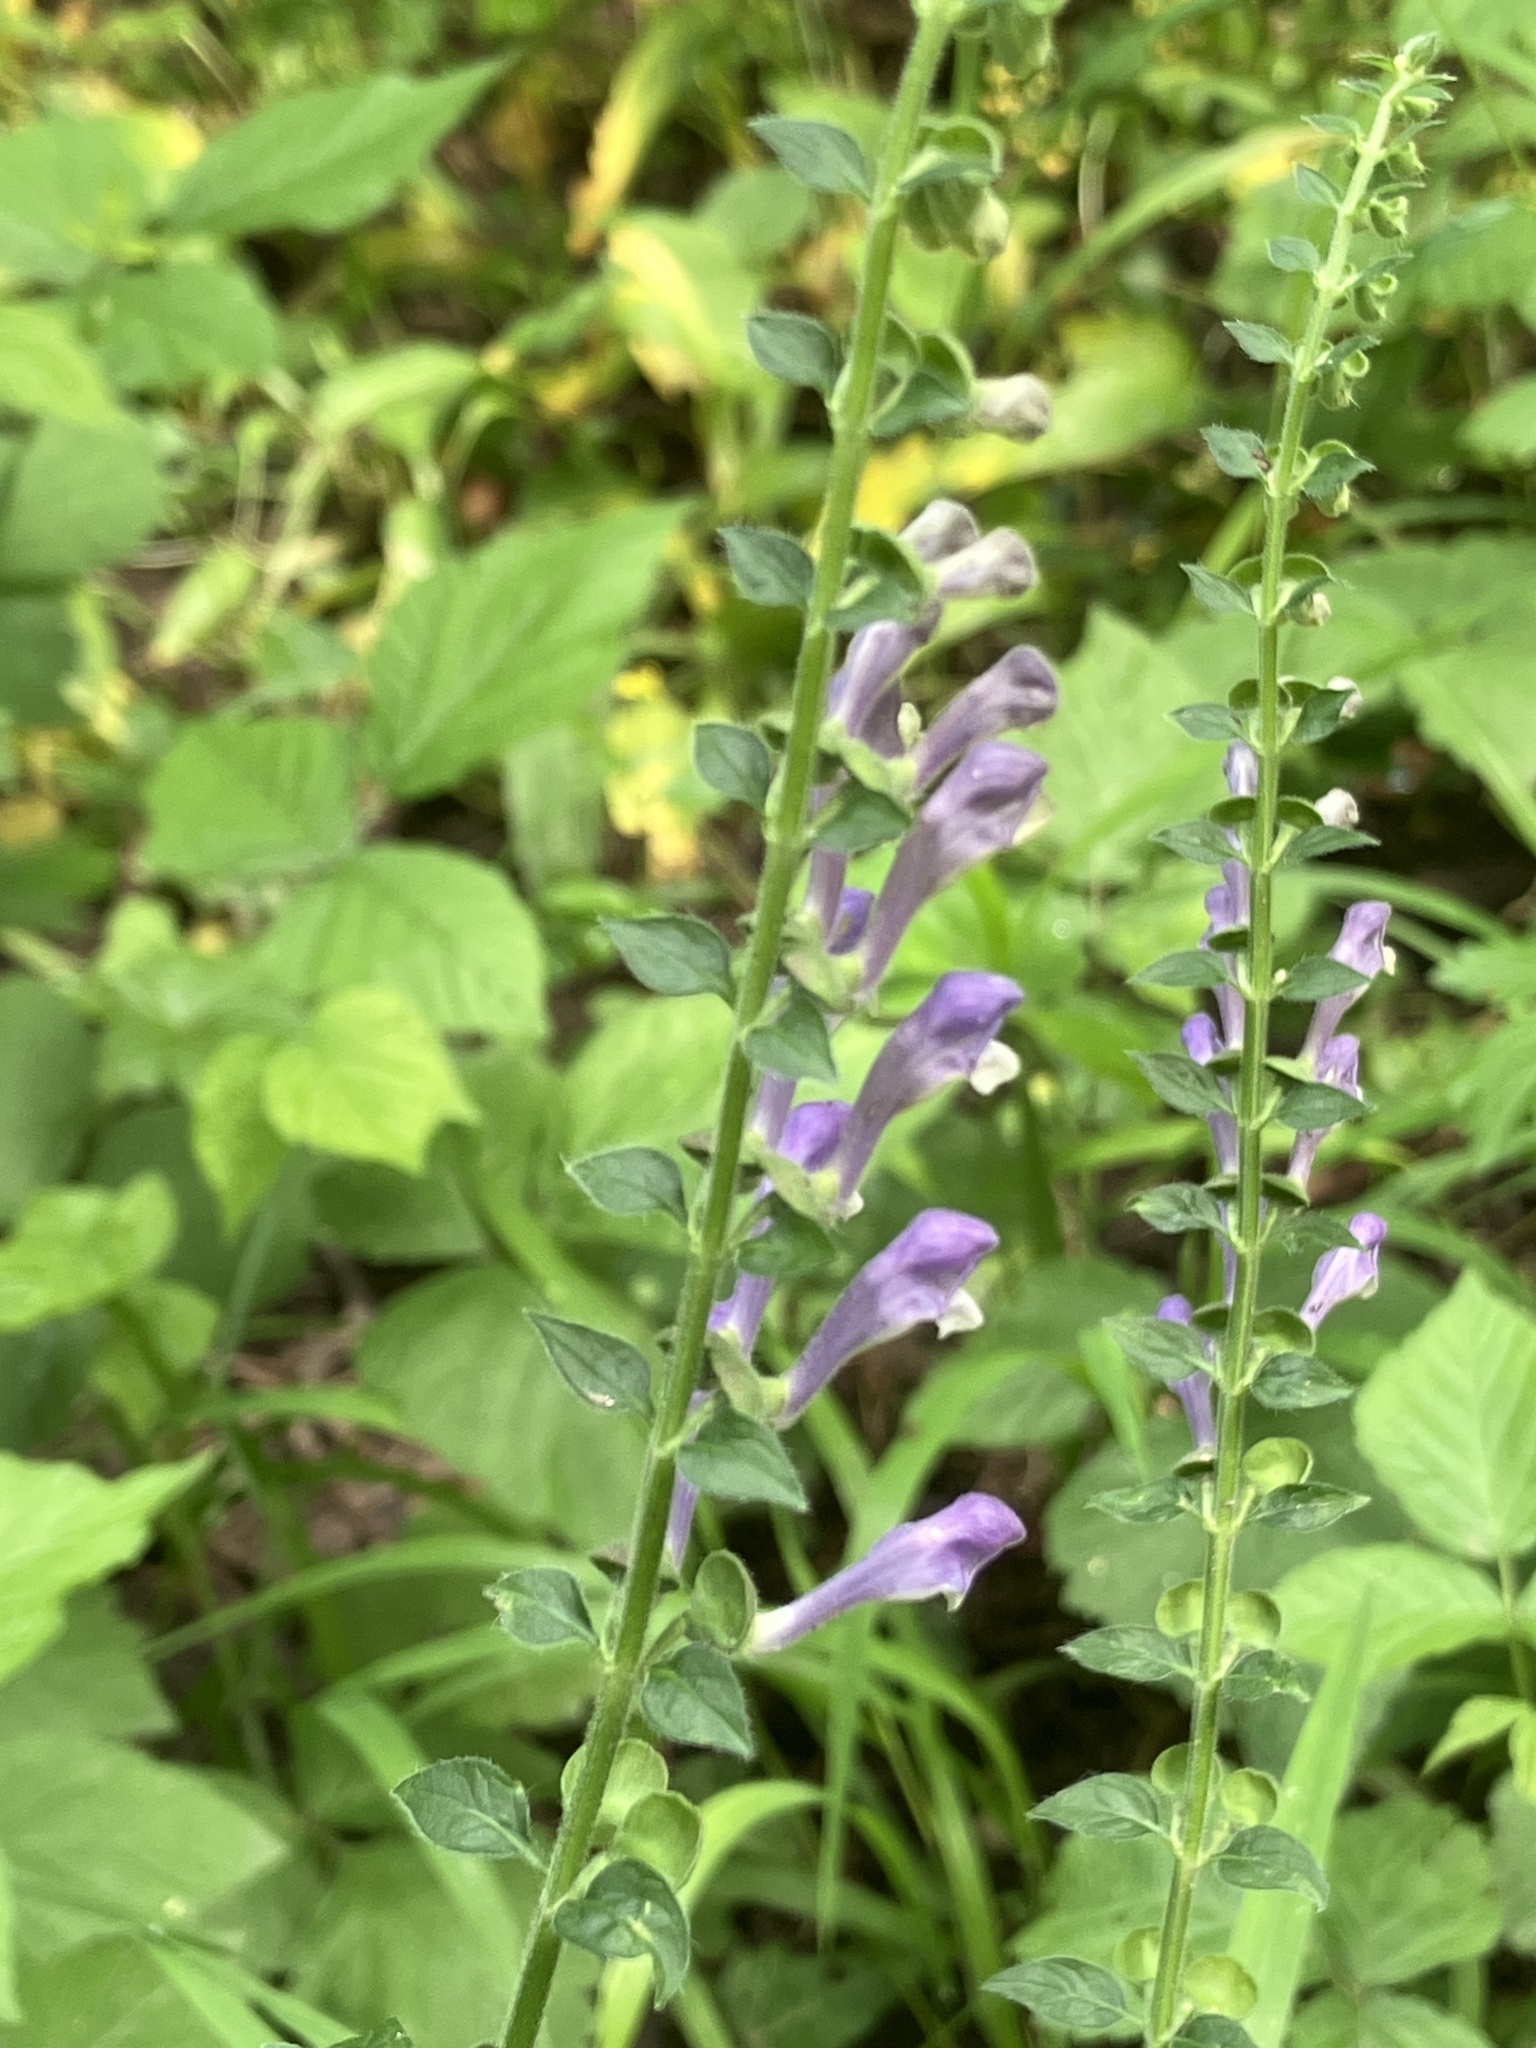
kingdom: Plantae
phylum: Tracheophyta
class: Magnoliopsida
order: Lamiales
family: Lamiaceae
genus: Scutellaria
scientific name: Scutellaria altissima
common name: Somerset skullcap
